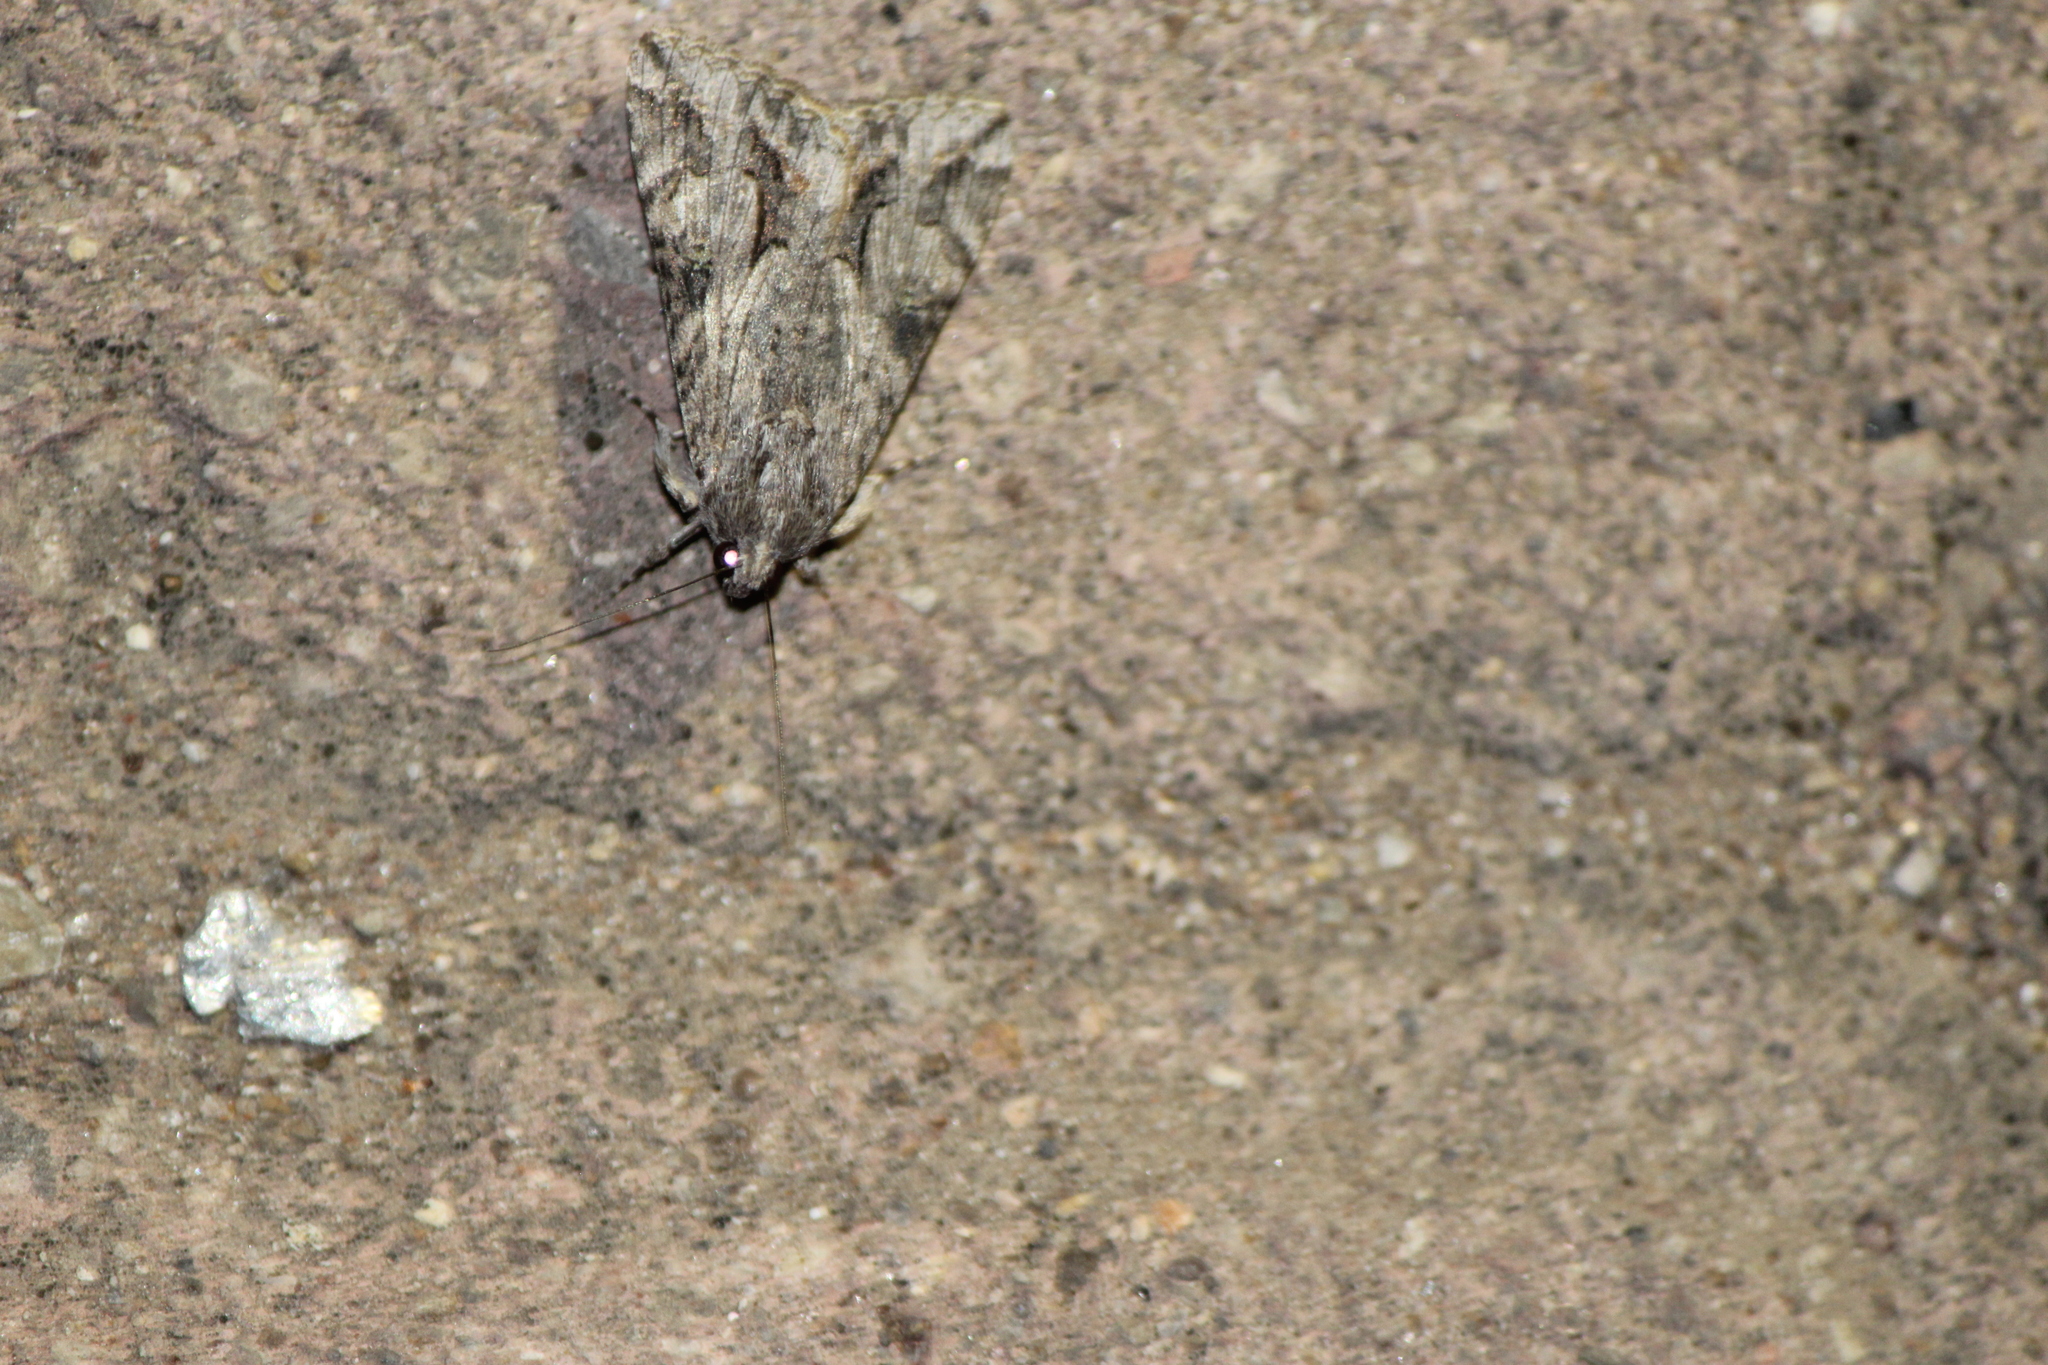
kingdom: Animalia
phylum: Arthropoda
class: Insecta
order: Lepidoptera
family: Erebidae
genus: Melipotis
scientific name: Melipotis jucunda
